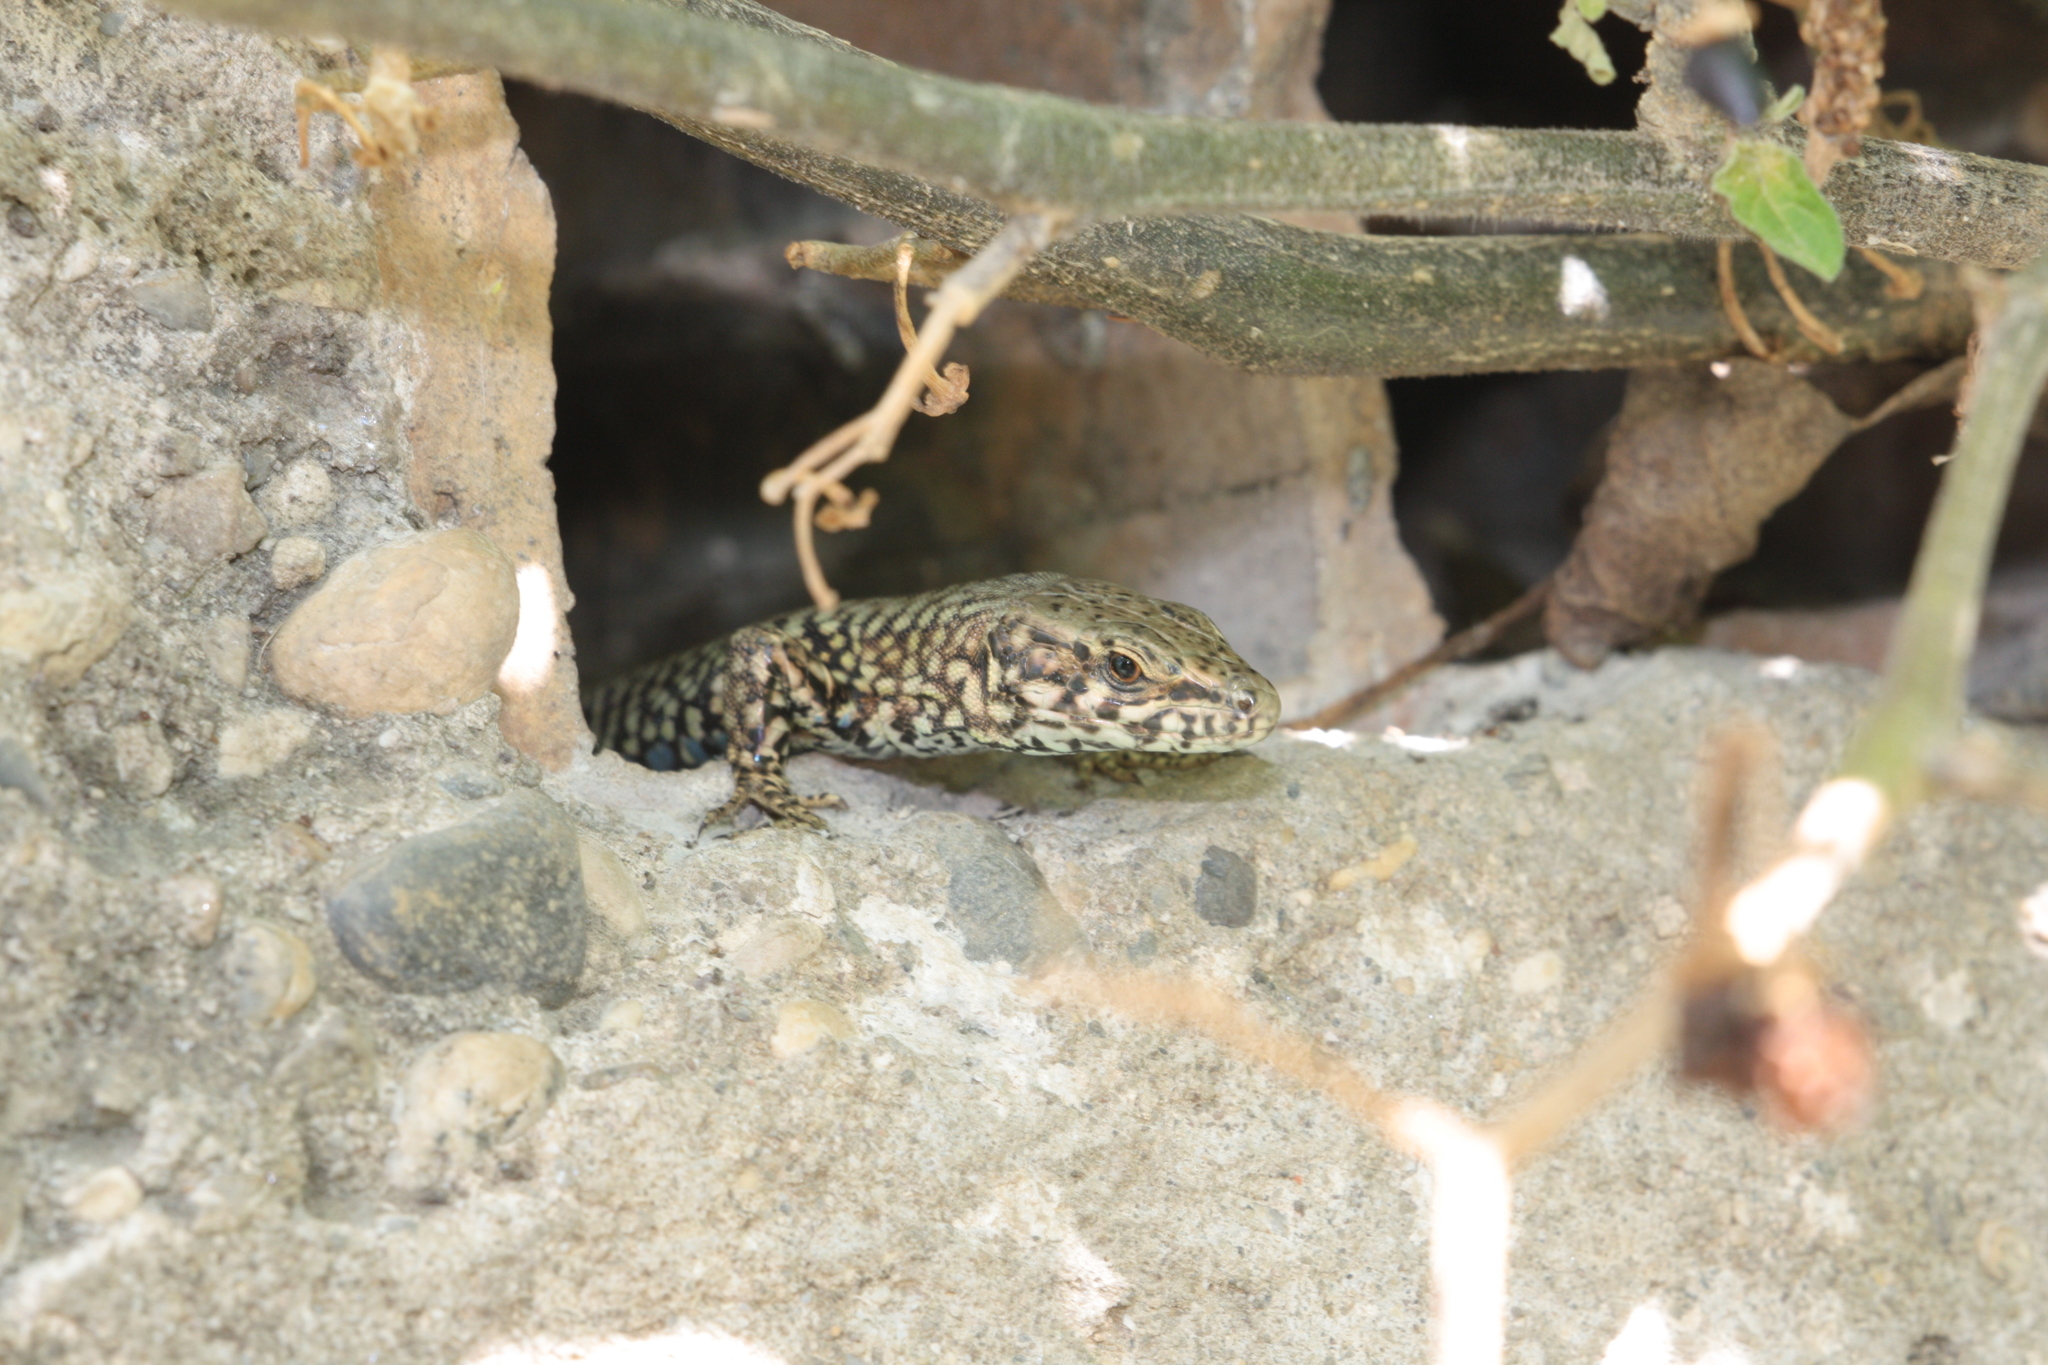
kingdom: Animalia
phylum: Chordata
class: Squamata
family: Lacertidae
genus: Podarcis
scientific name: Podarcis muralis
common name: Common wall lizard
